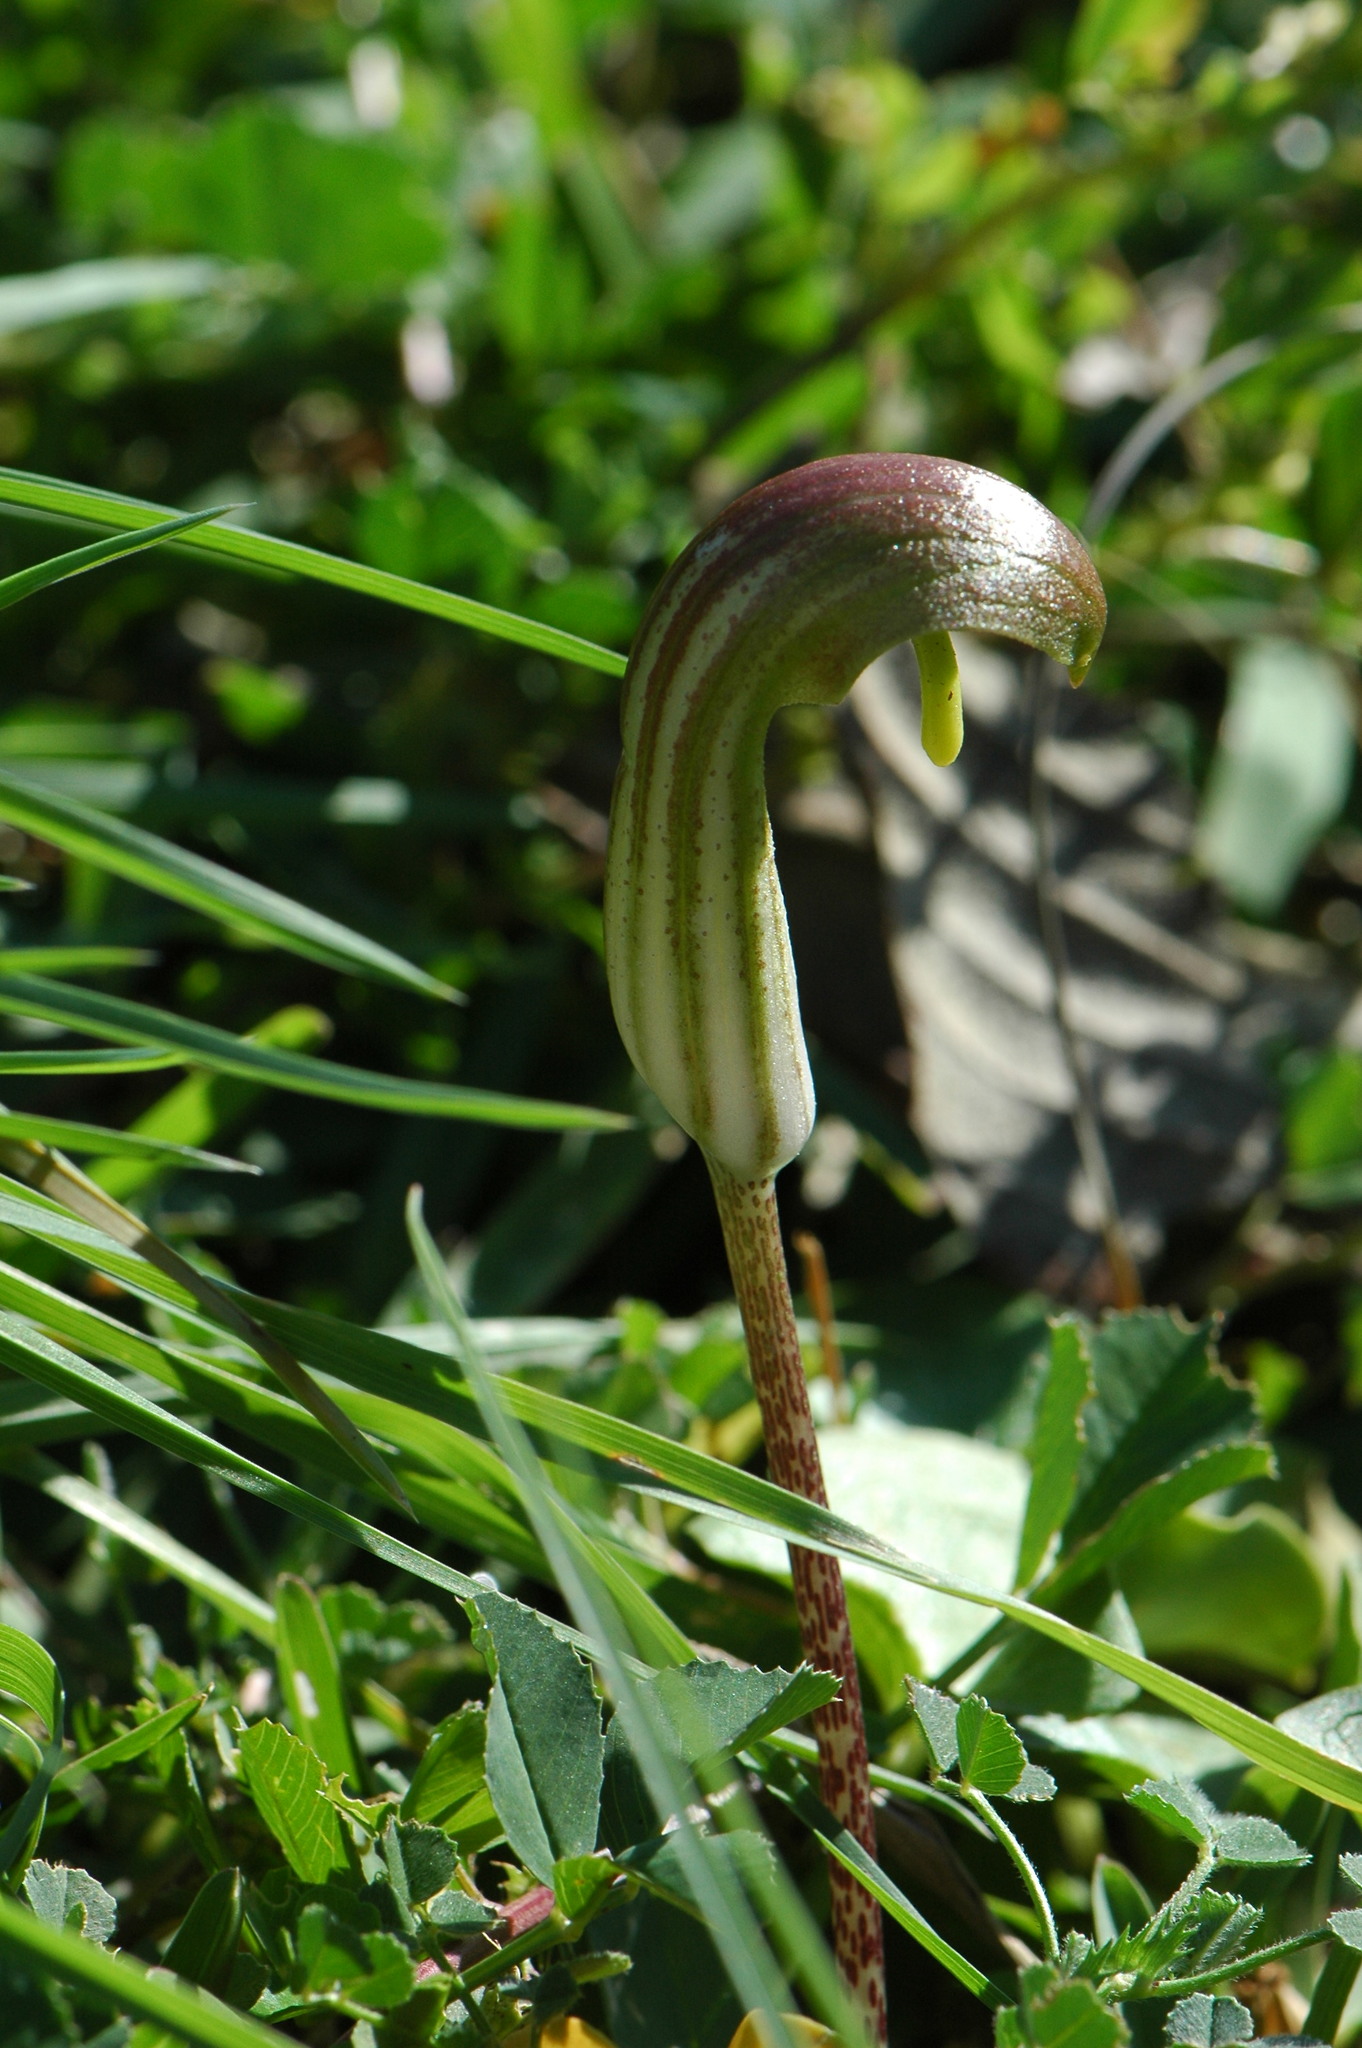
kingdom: Plantae
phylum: Tracheophyta
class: Liliopsida
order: Alismatales
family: Araceae
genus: Arisarum
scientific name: Arisarum vulgare
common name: Common arisarum
